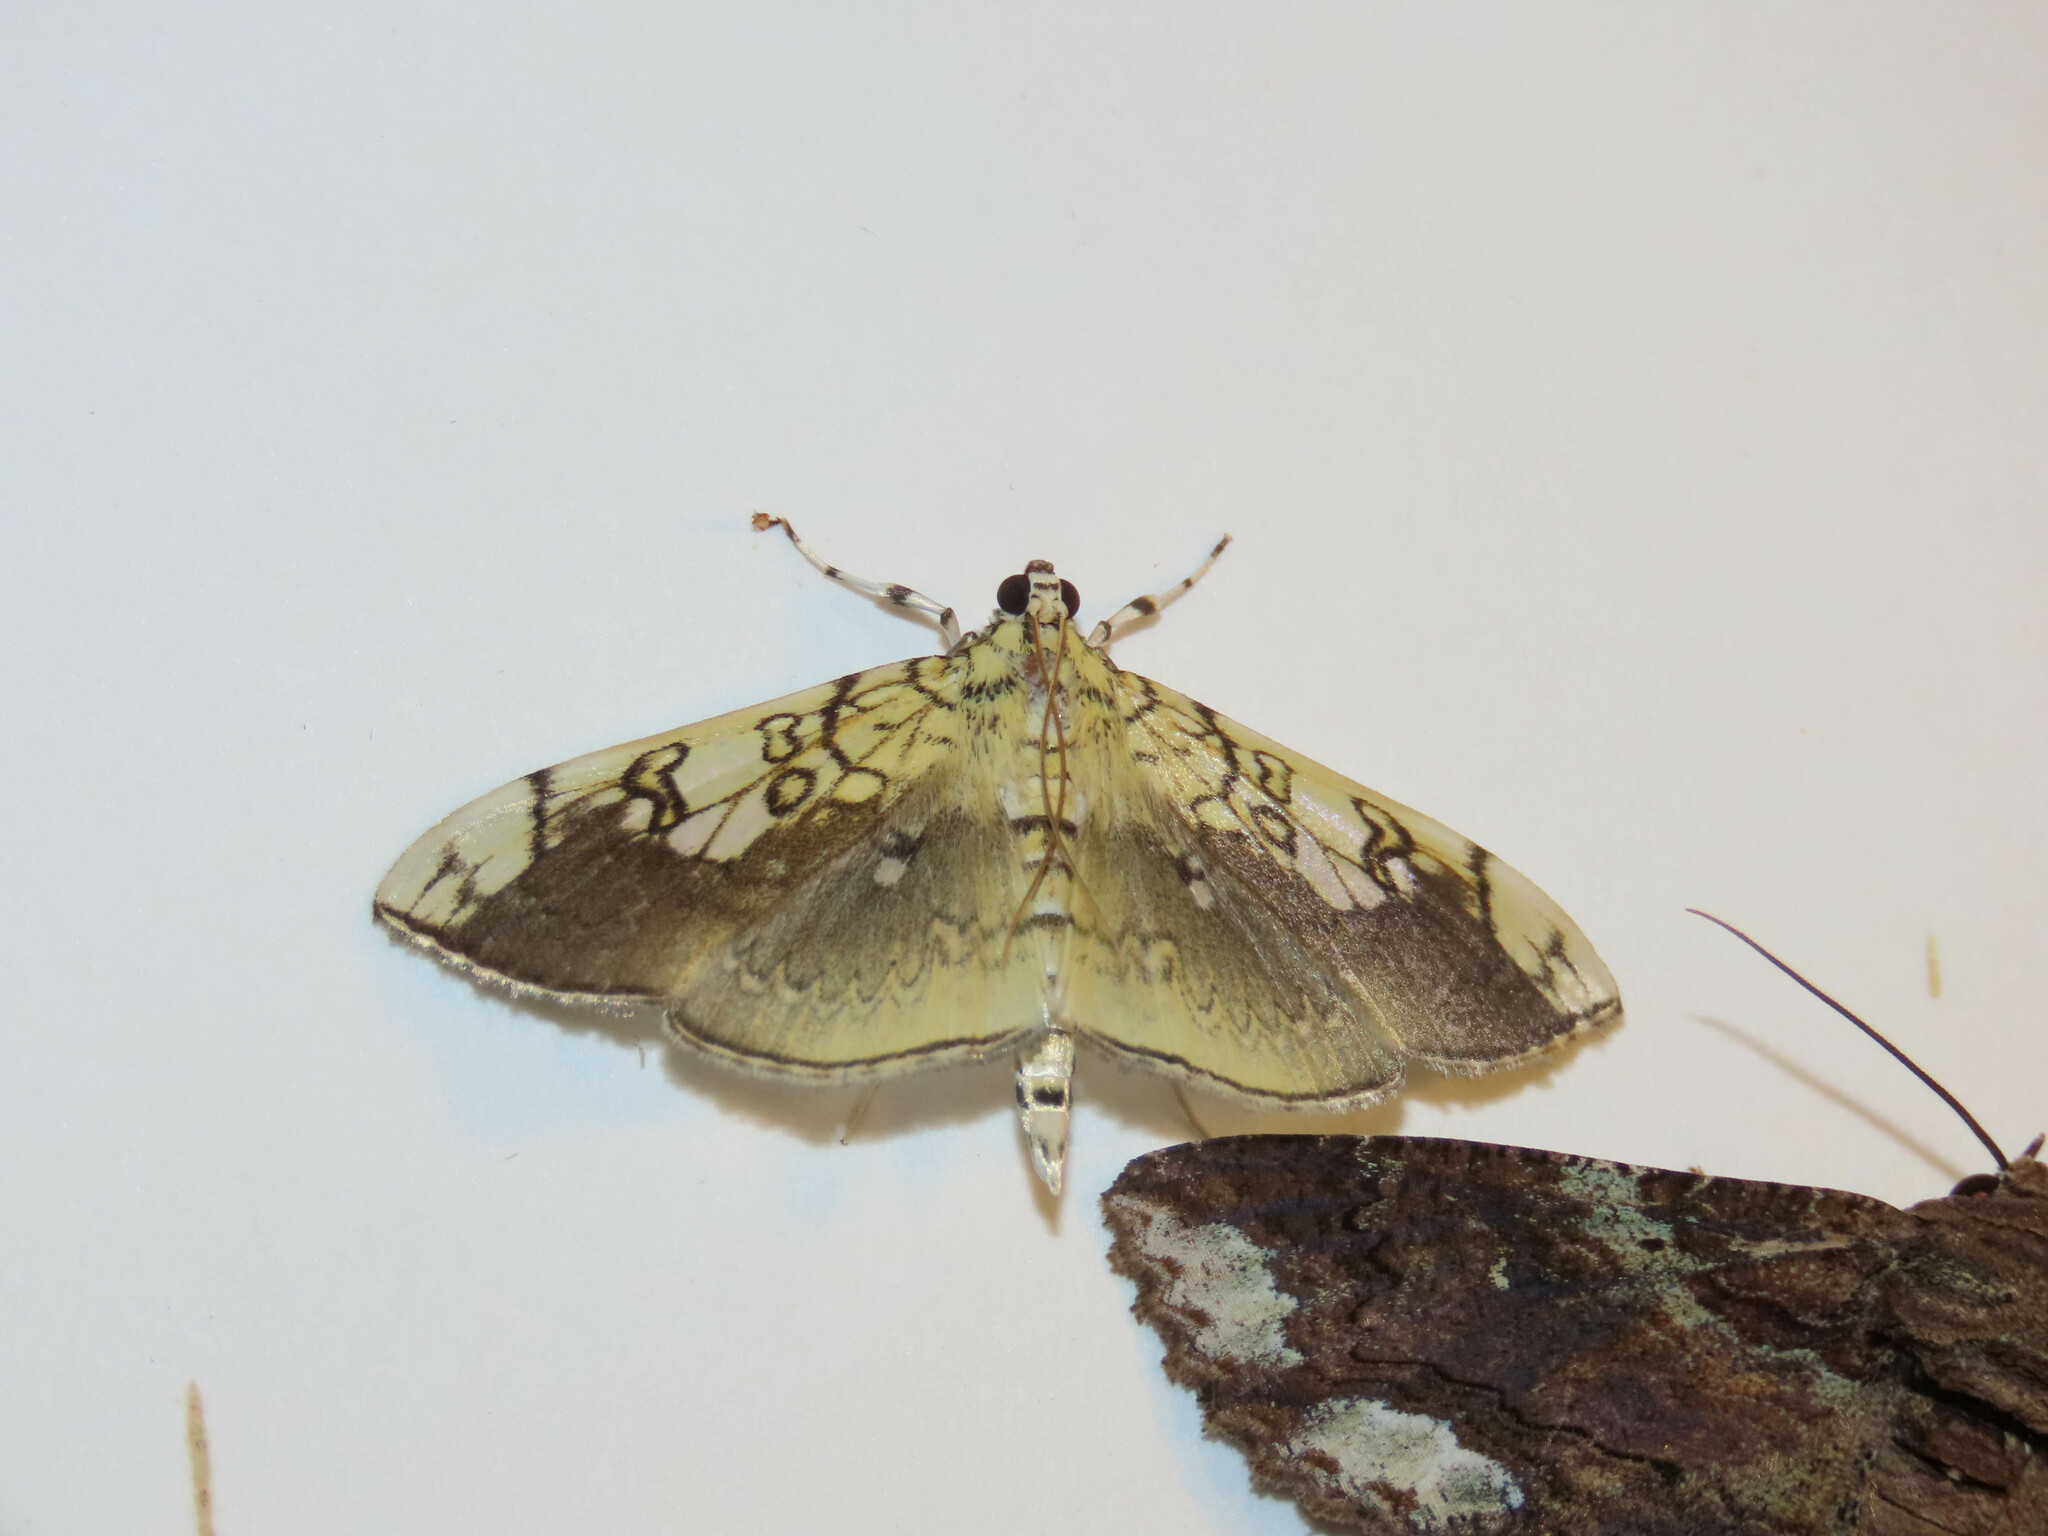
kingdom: Animalia
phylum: Arthropoda
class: Insecta
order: Lepidoptera
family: Crambidae
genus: Pantographa
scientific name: Pantographa limata
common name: Basswood leafroller moth
